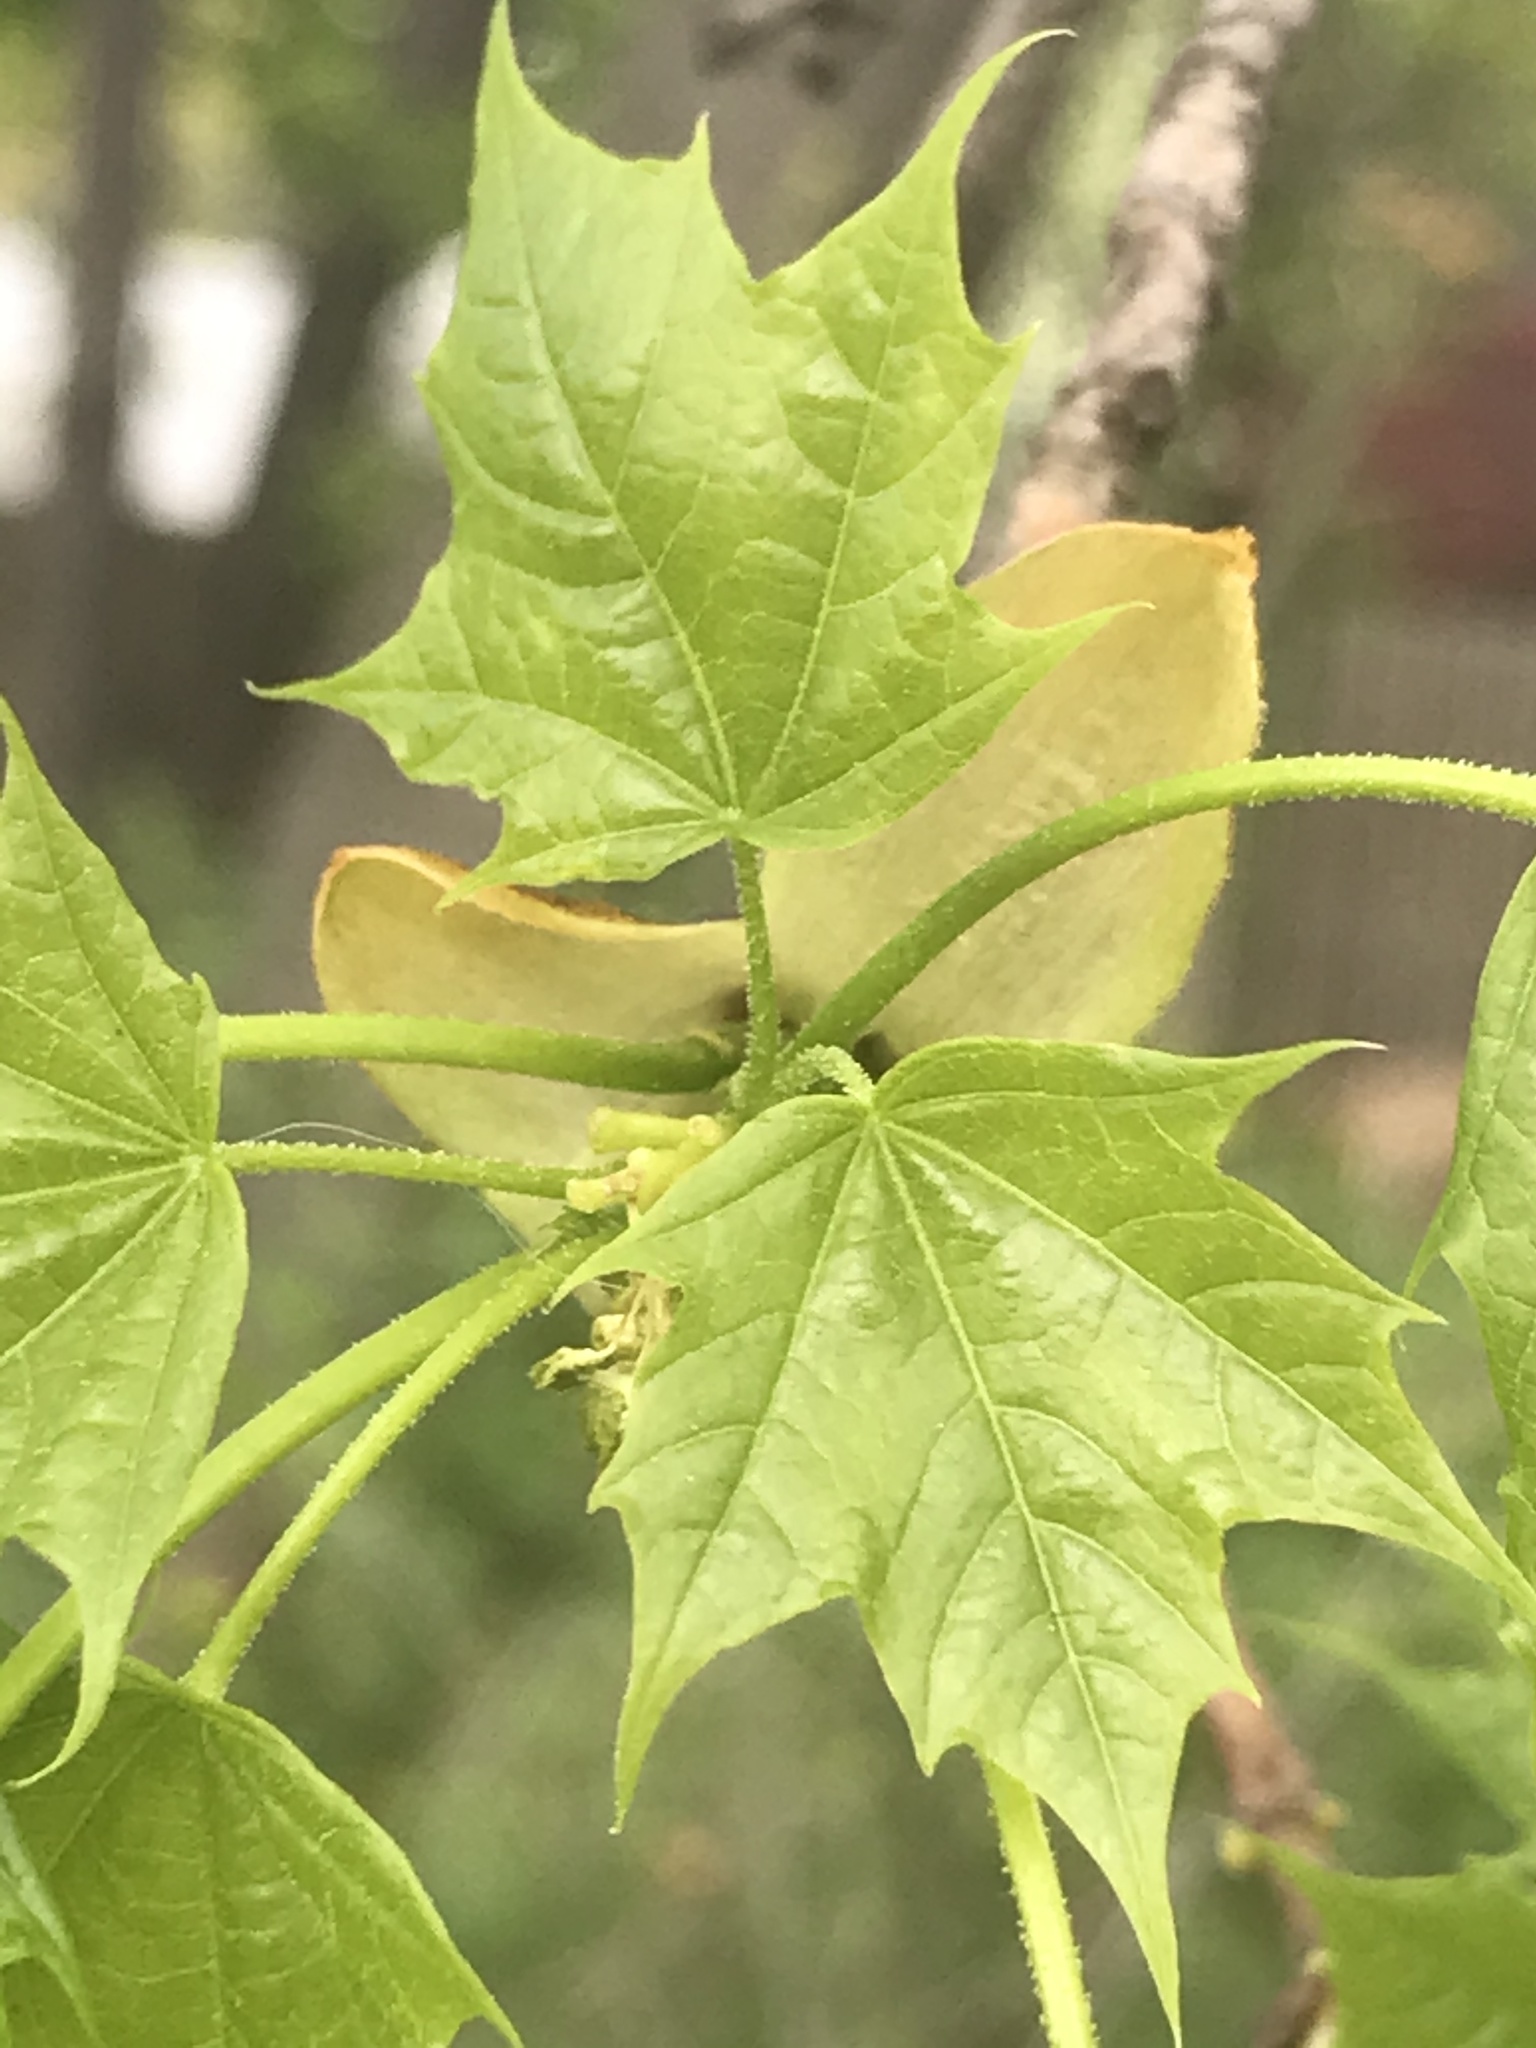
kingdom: Plantae
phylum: Tracheophyta
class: Magnoliopsida
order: Sapindales
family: Sapindaceae
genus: Acer
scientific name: Acer platanoides
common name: Norway maple
